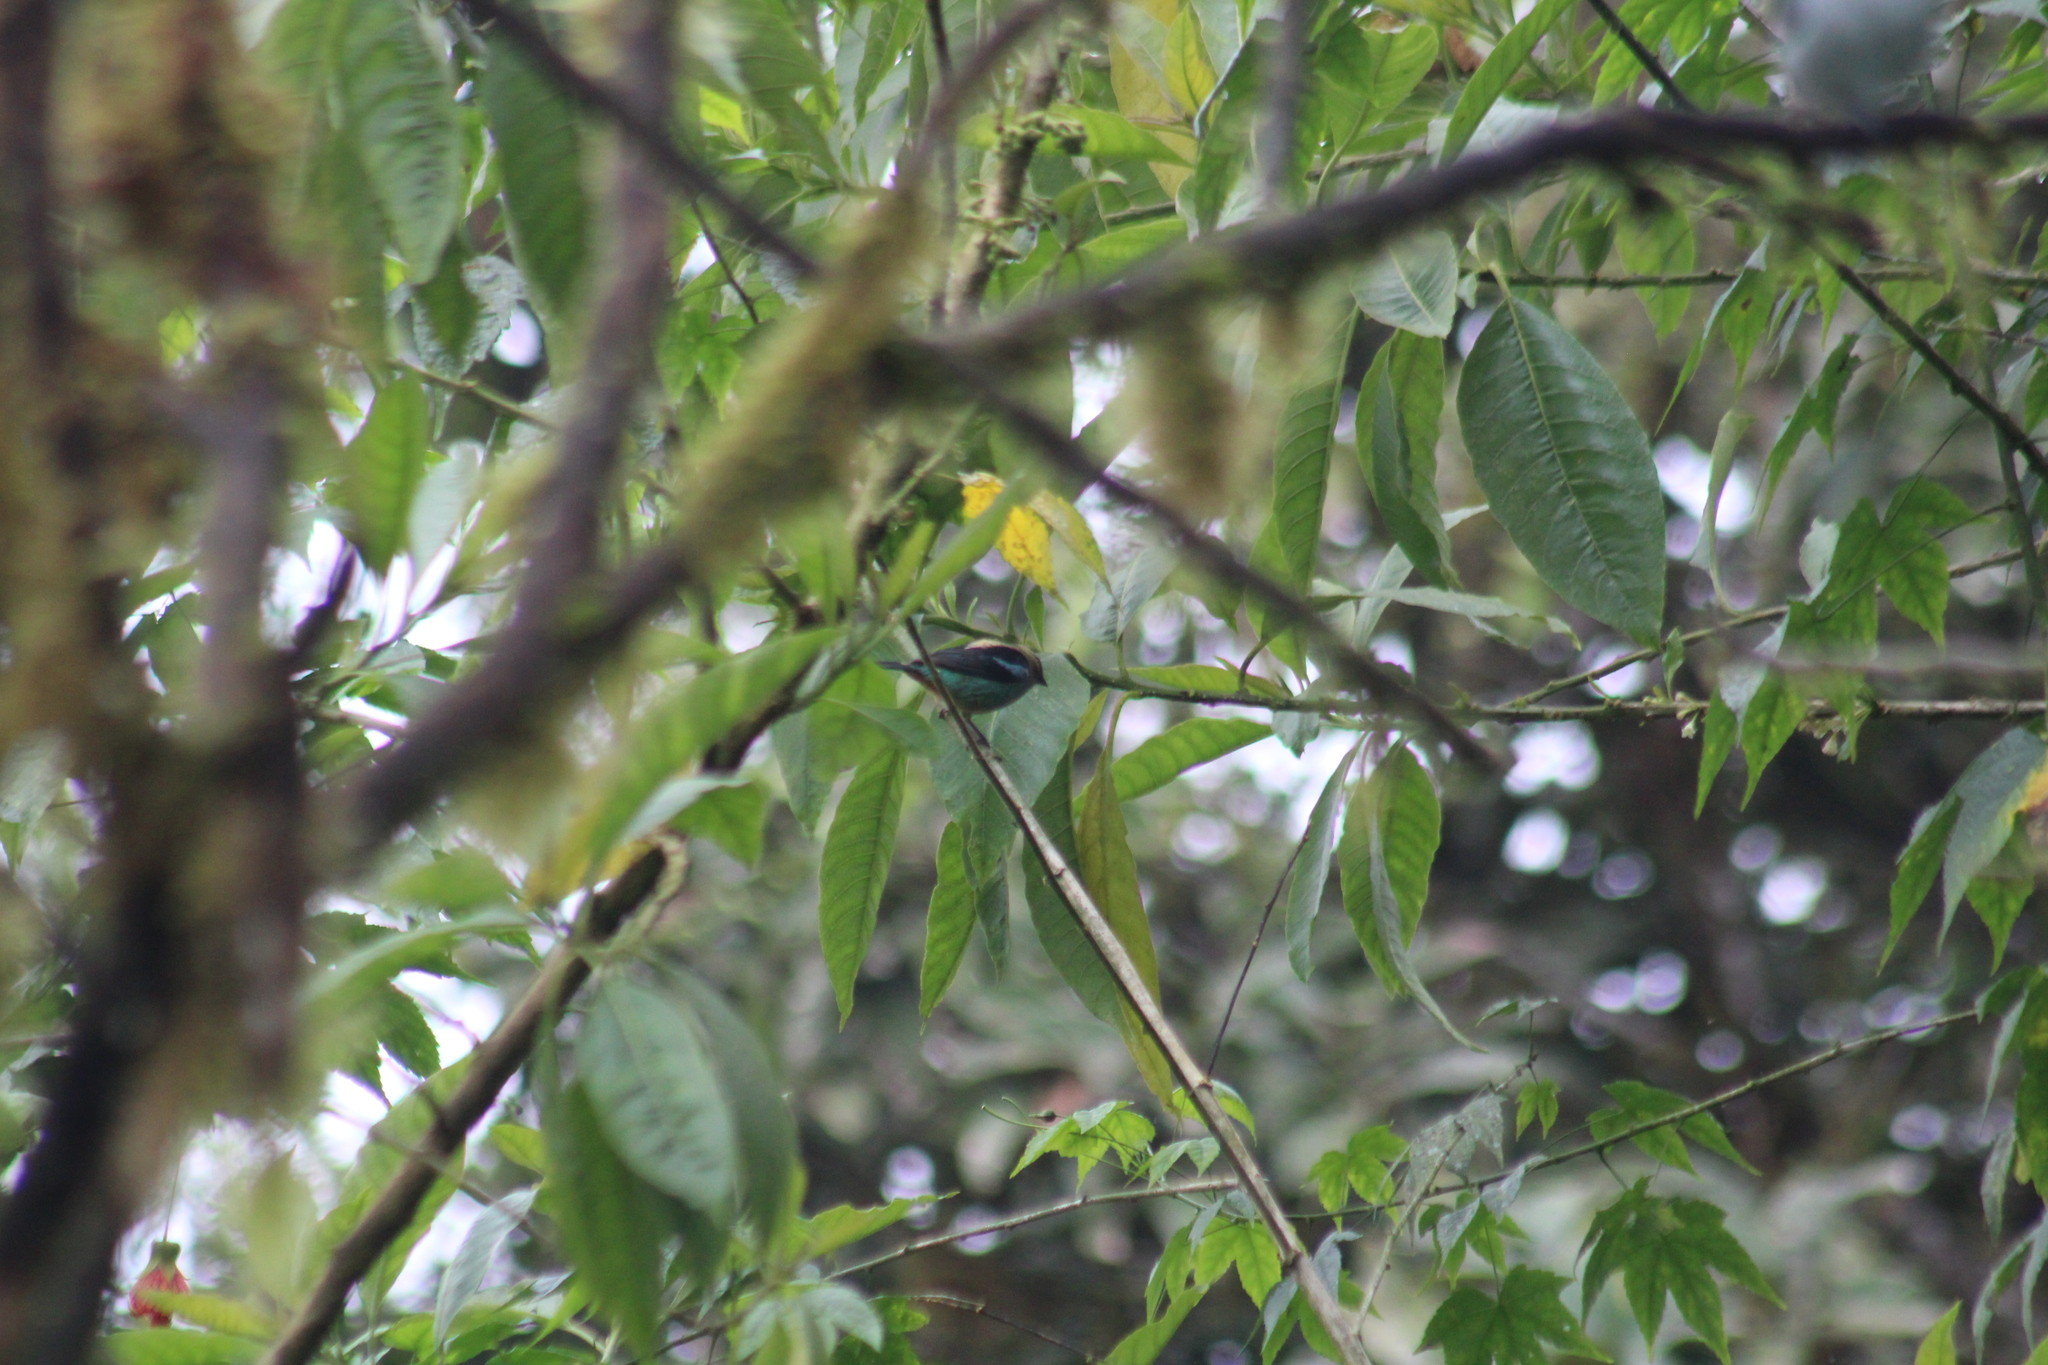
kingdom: Animalia
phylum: Chordata
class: Aves
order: Passeriformes
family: Thraupidae
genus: Tangara
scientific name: Tangara labradorides
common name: Metallic-green tanager
